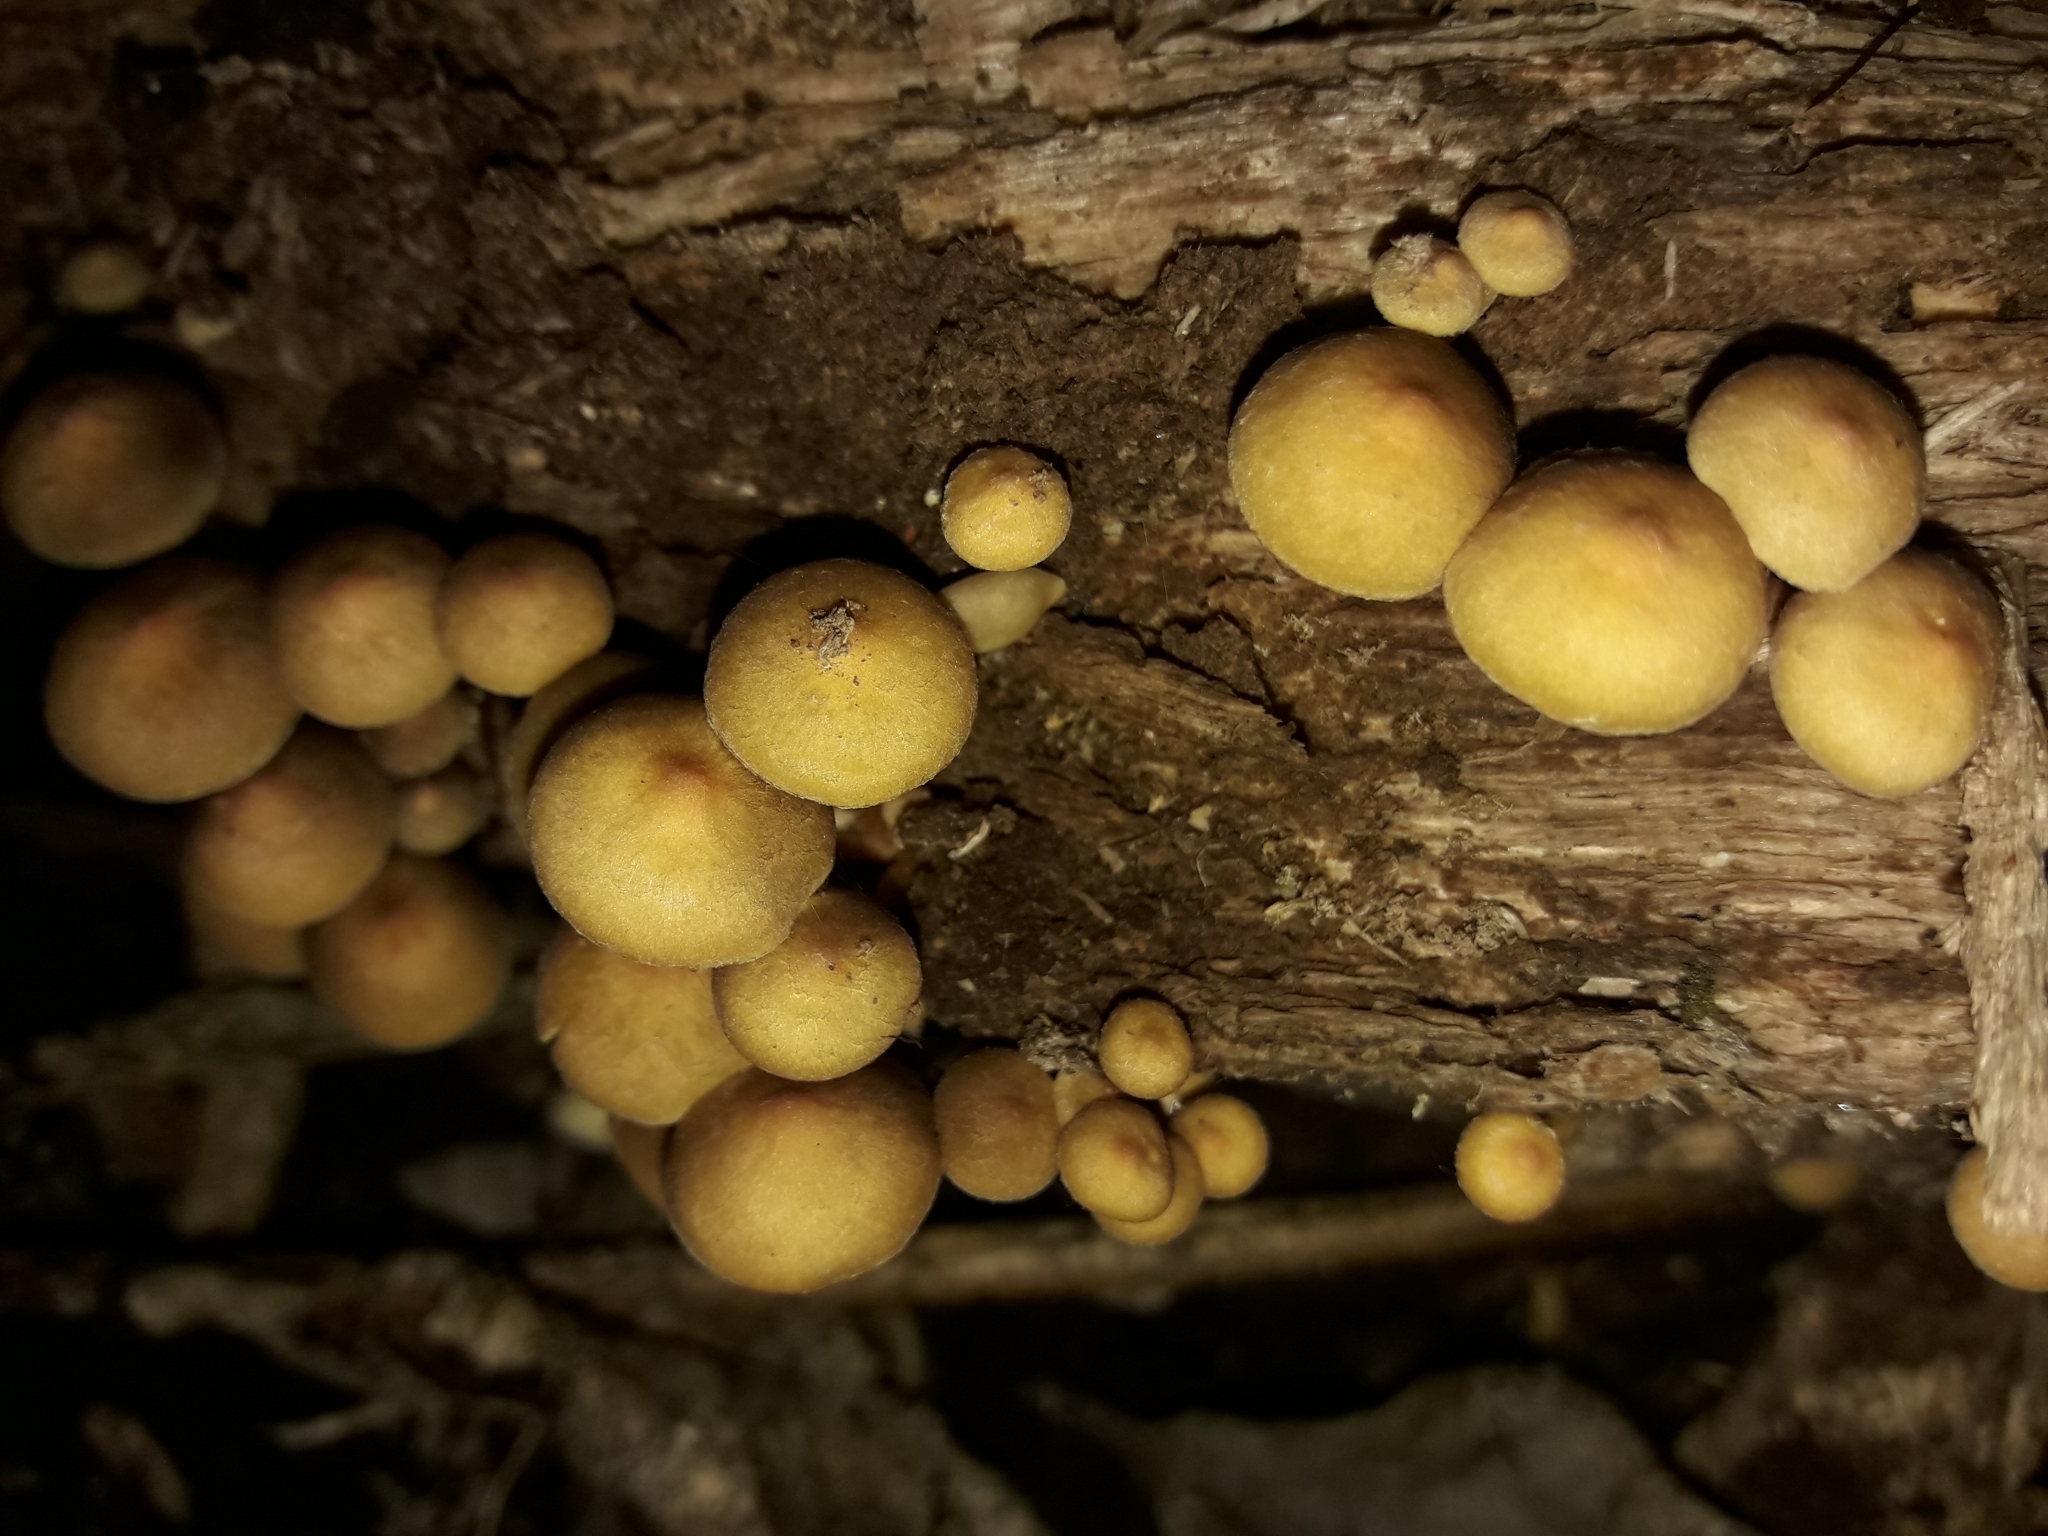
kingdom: Fungi
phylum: Basidiomycota
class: Agaricomycetes
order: Agaricales
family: Strophariaceae
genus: Hypholoma
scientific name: Hypholoma acutum
